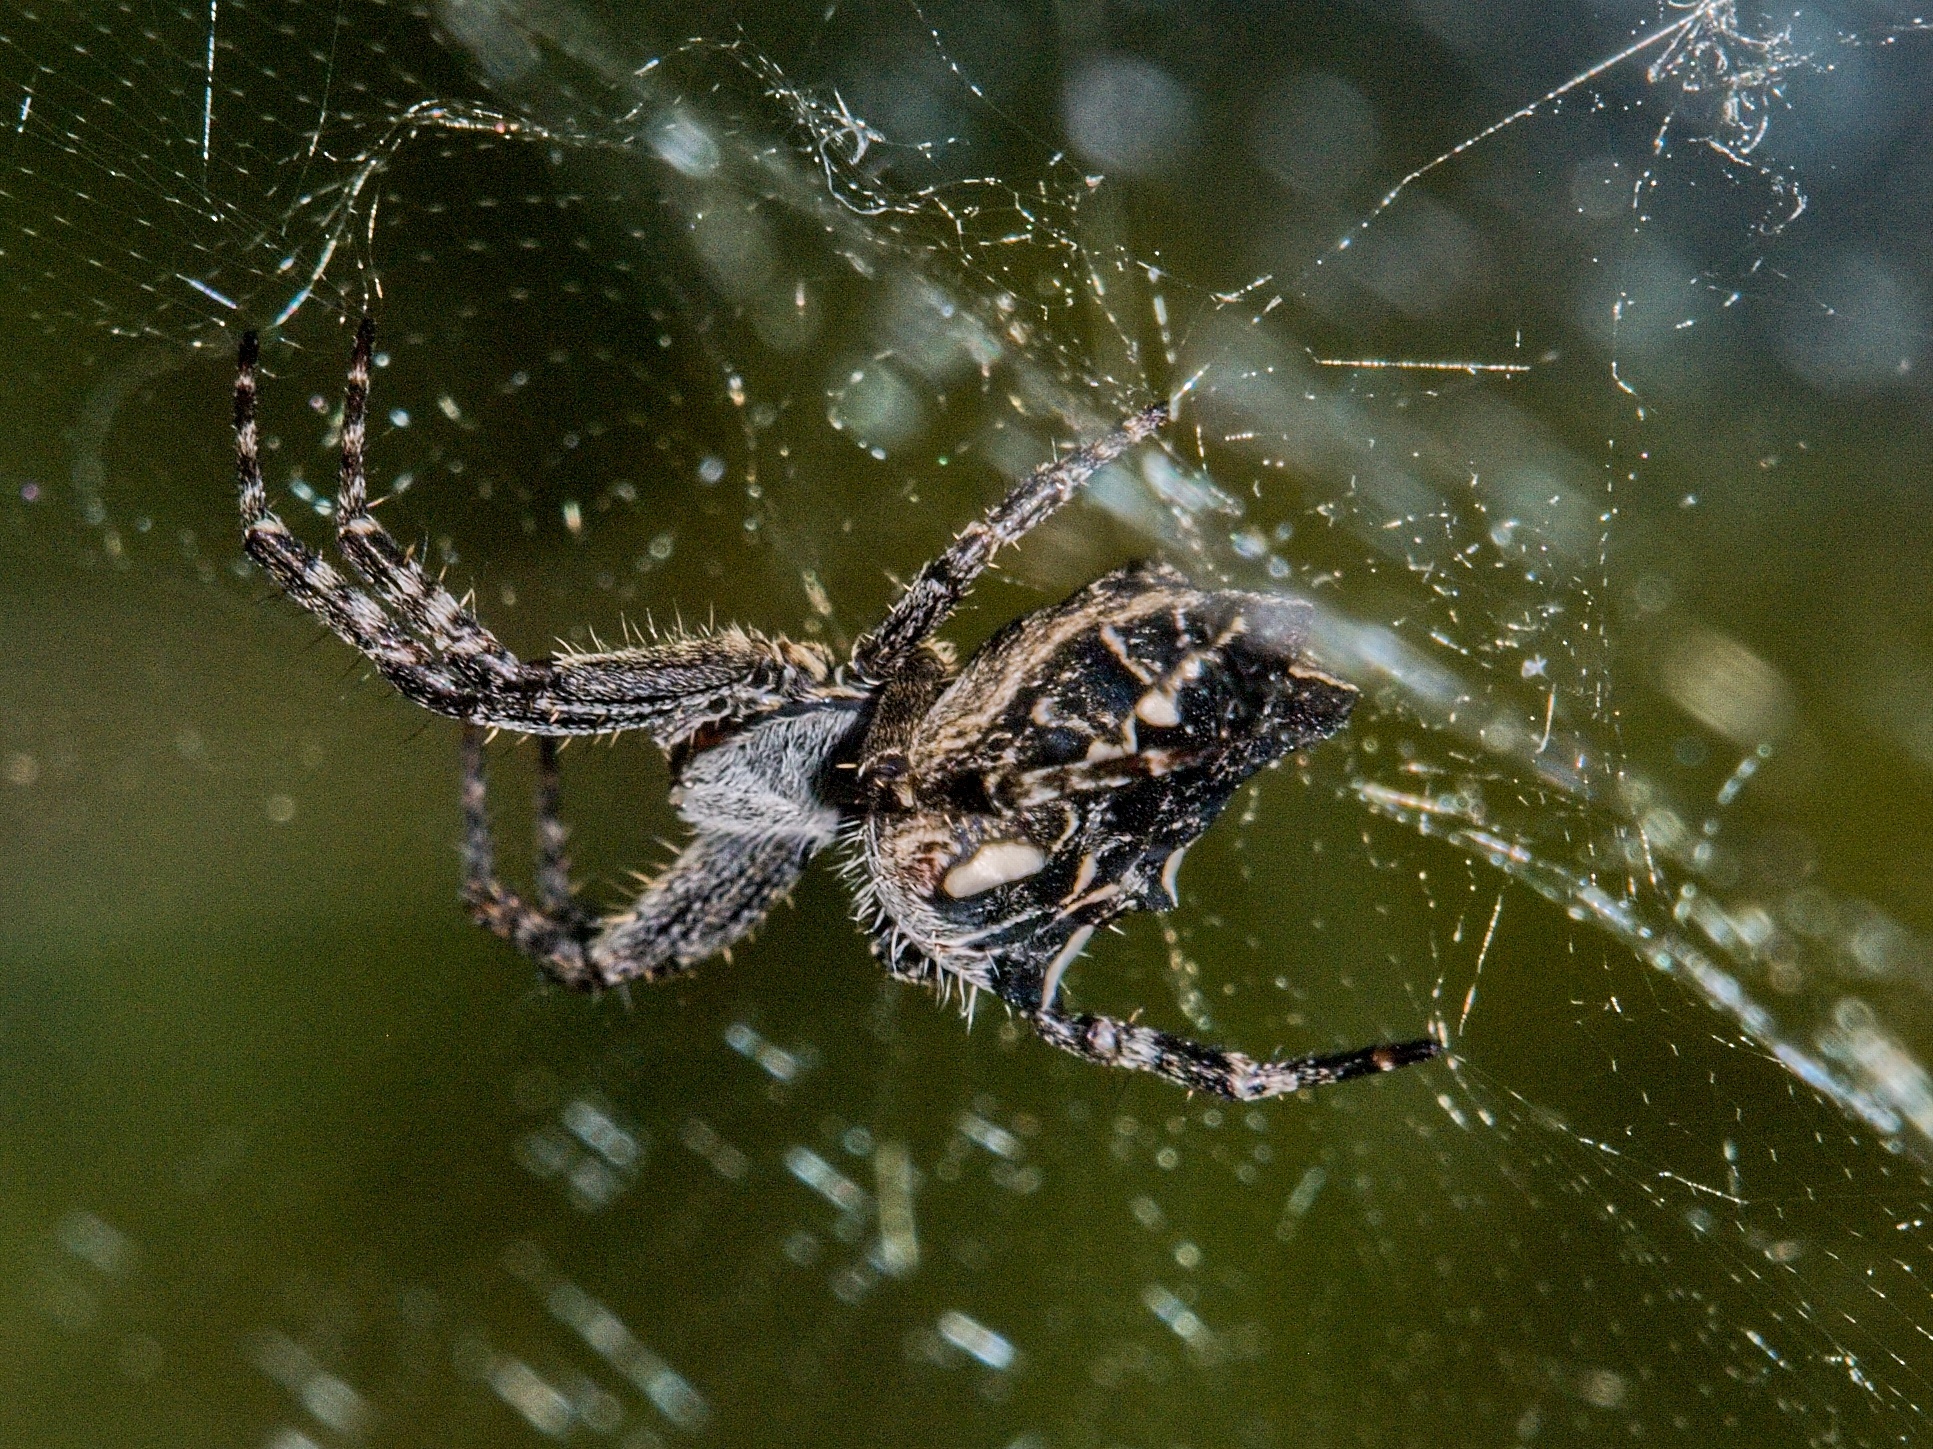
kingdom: Animalia
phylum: Arthropoda
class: Arachnida
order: Araneae
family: Araneidae
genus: Cyrtophora
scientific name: Cyrtophora citricola
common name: Orb weavers
